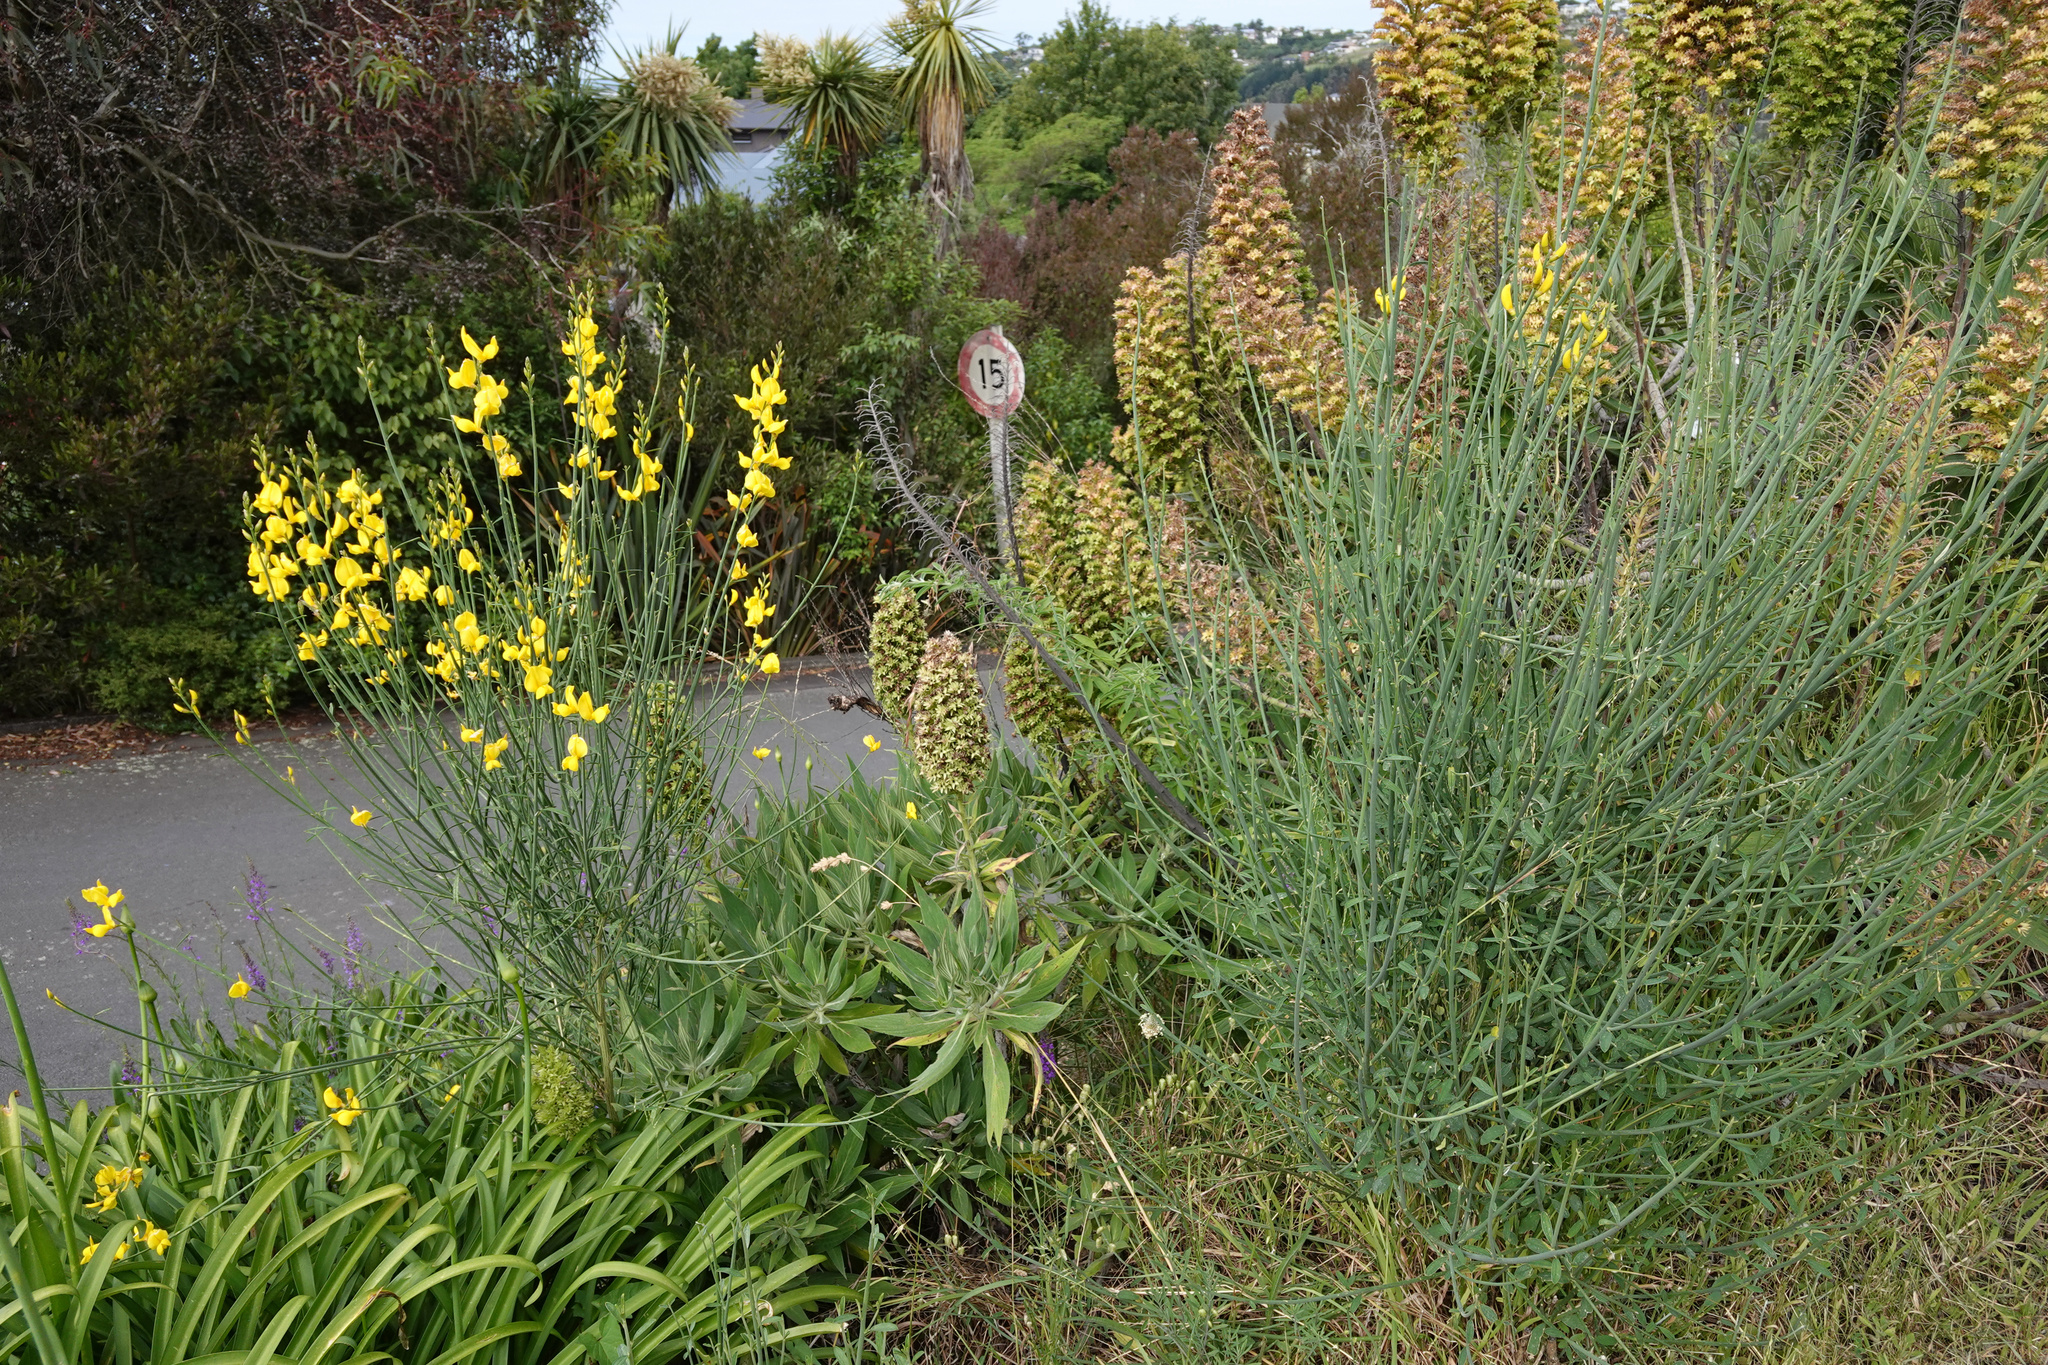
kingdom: Plantae
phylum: Tracheophyta
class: Magnoliopsida
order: Fabales
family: Fabaceae
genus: Spartium
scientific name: Spartium junceum
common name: Spanish broom
